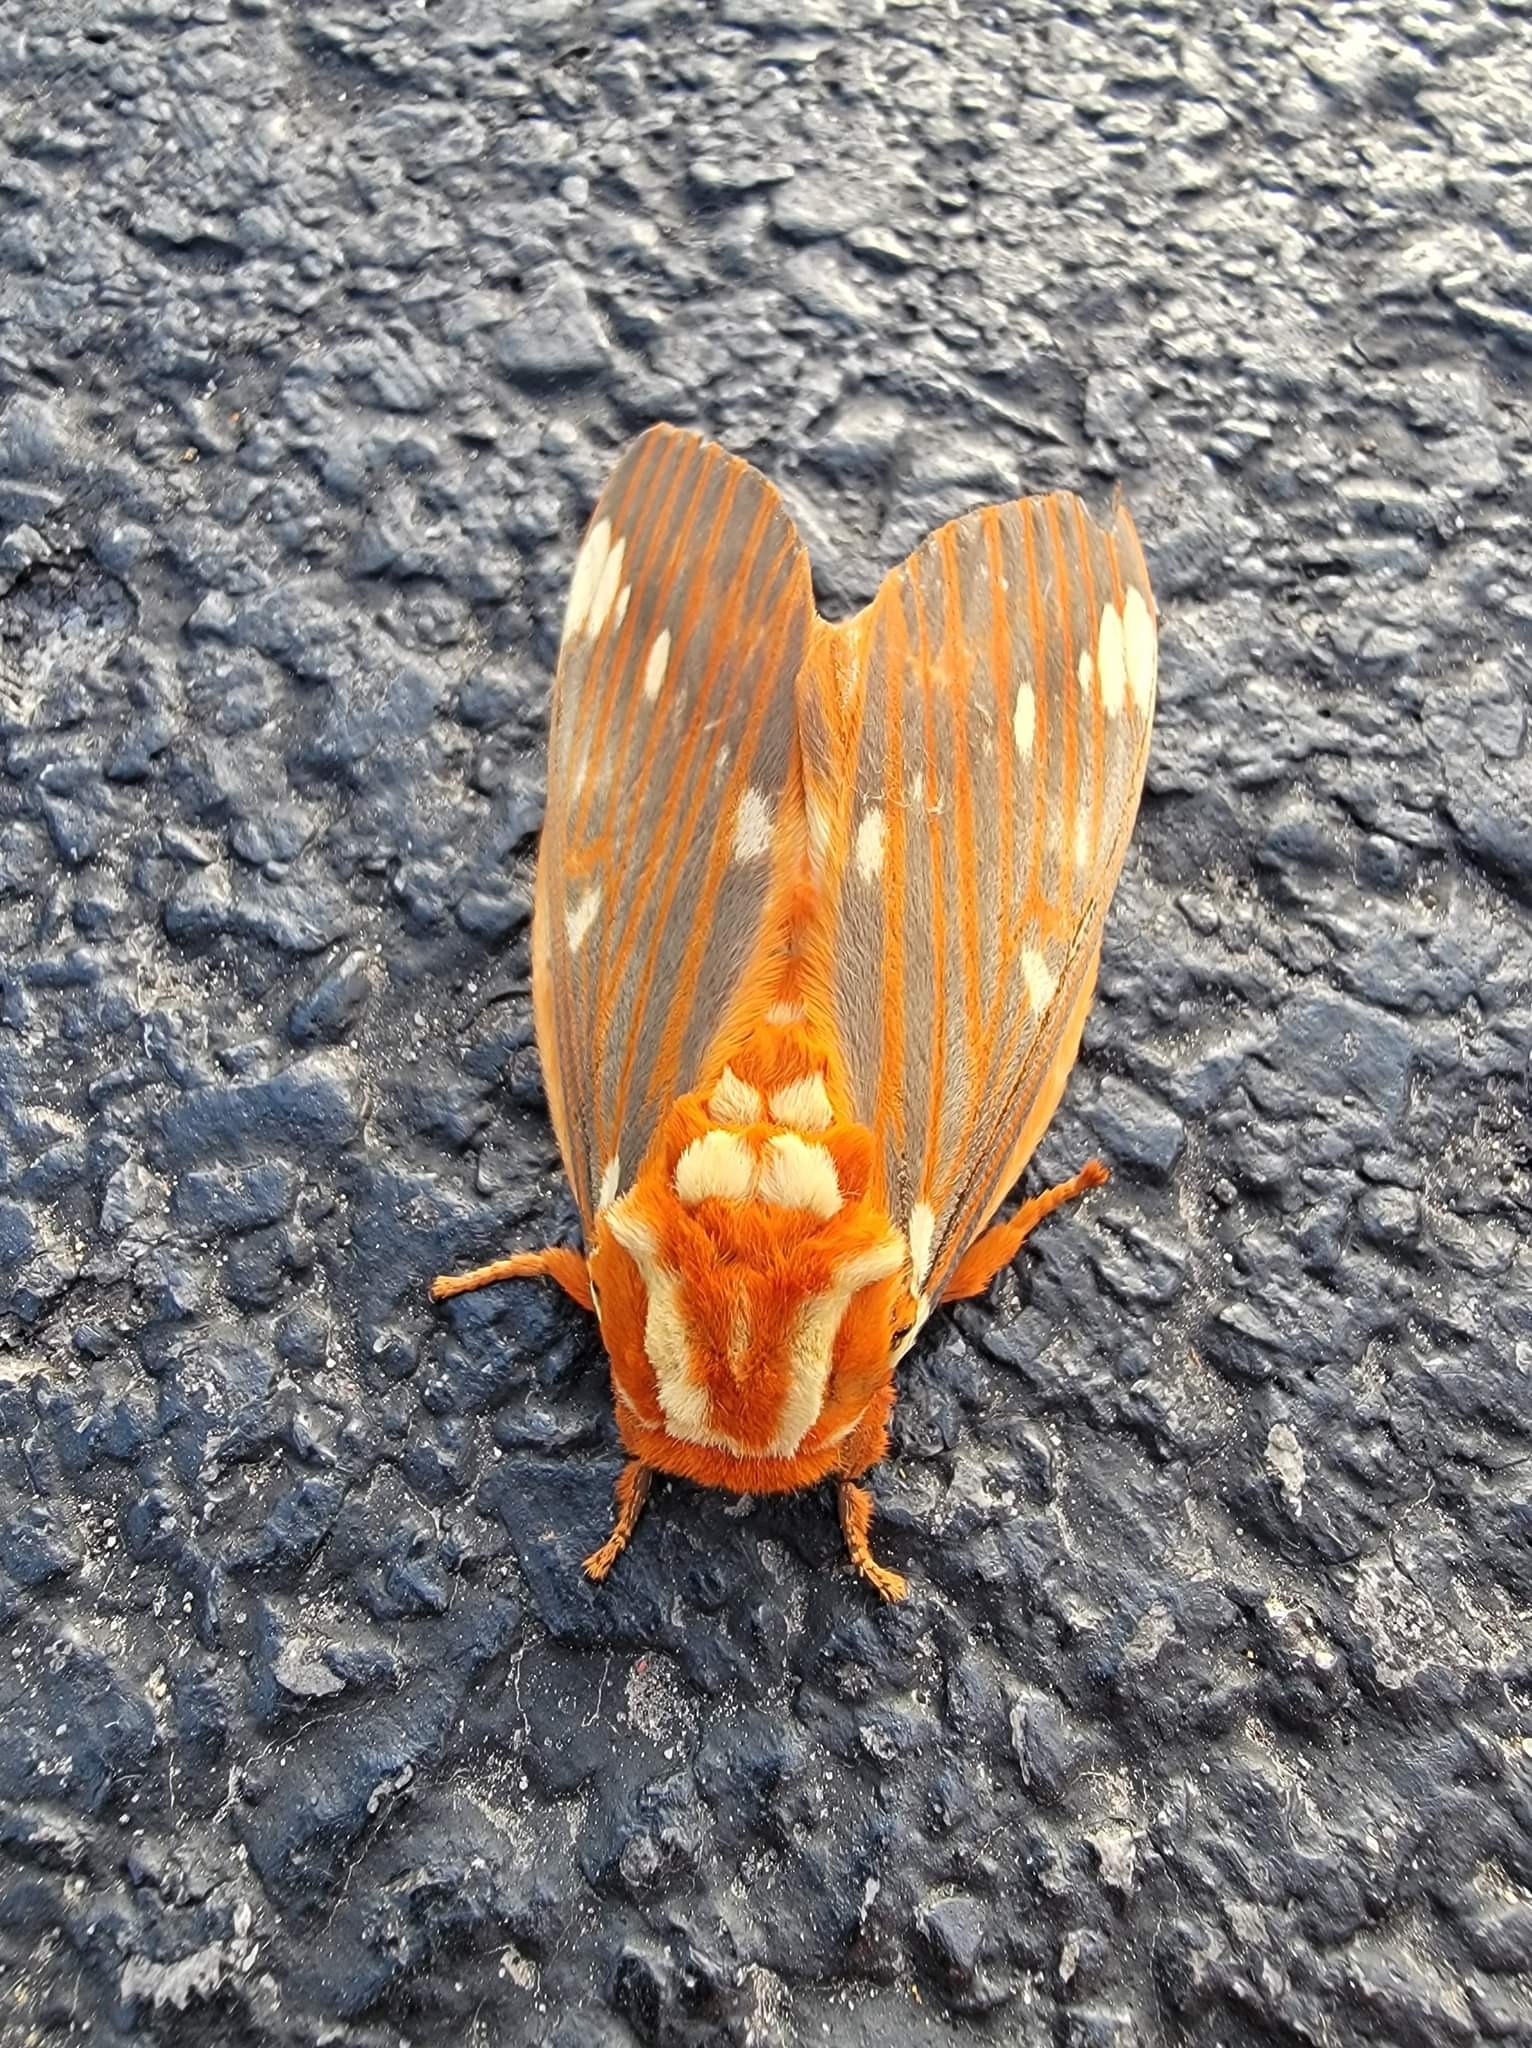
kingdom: Animalia
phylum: Arthropoda
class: Insecta
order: Lepidoptera
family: Saturniidae
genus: Citheronia
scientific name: Citheronia regalis
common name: Hickory horned devil
